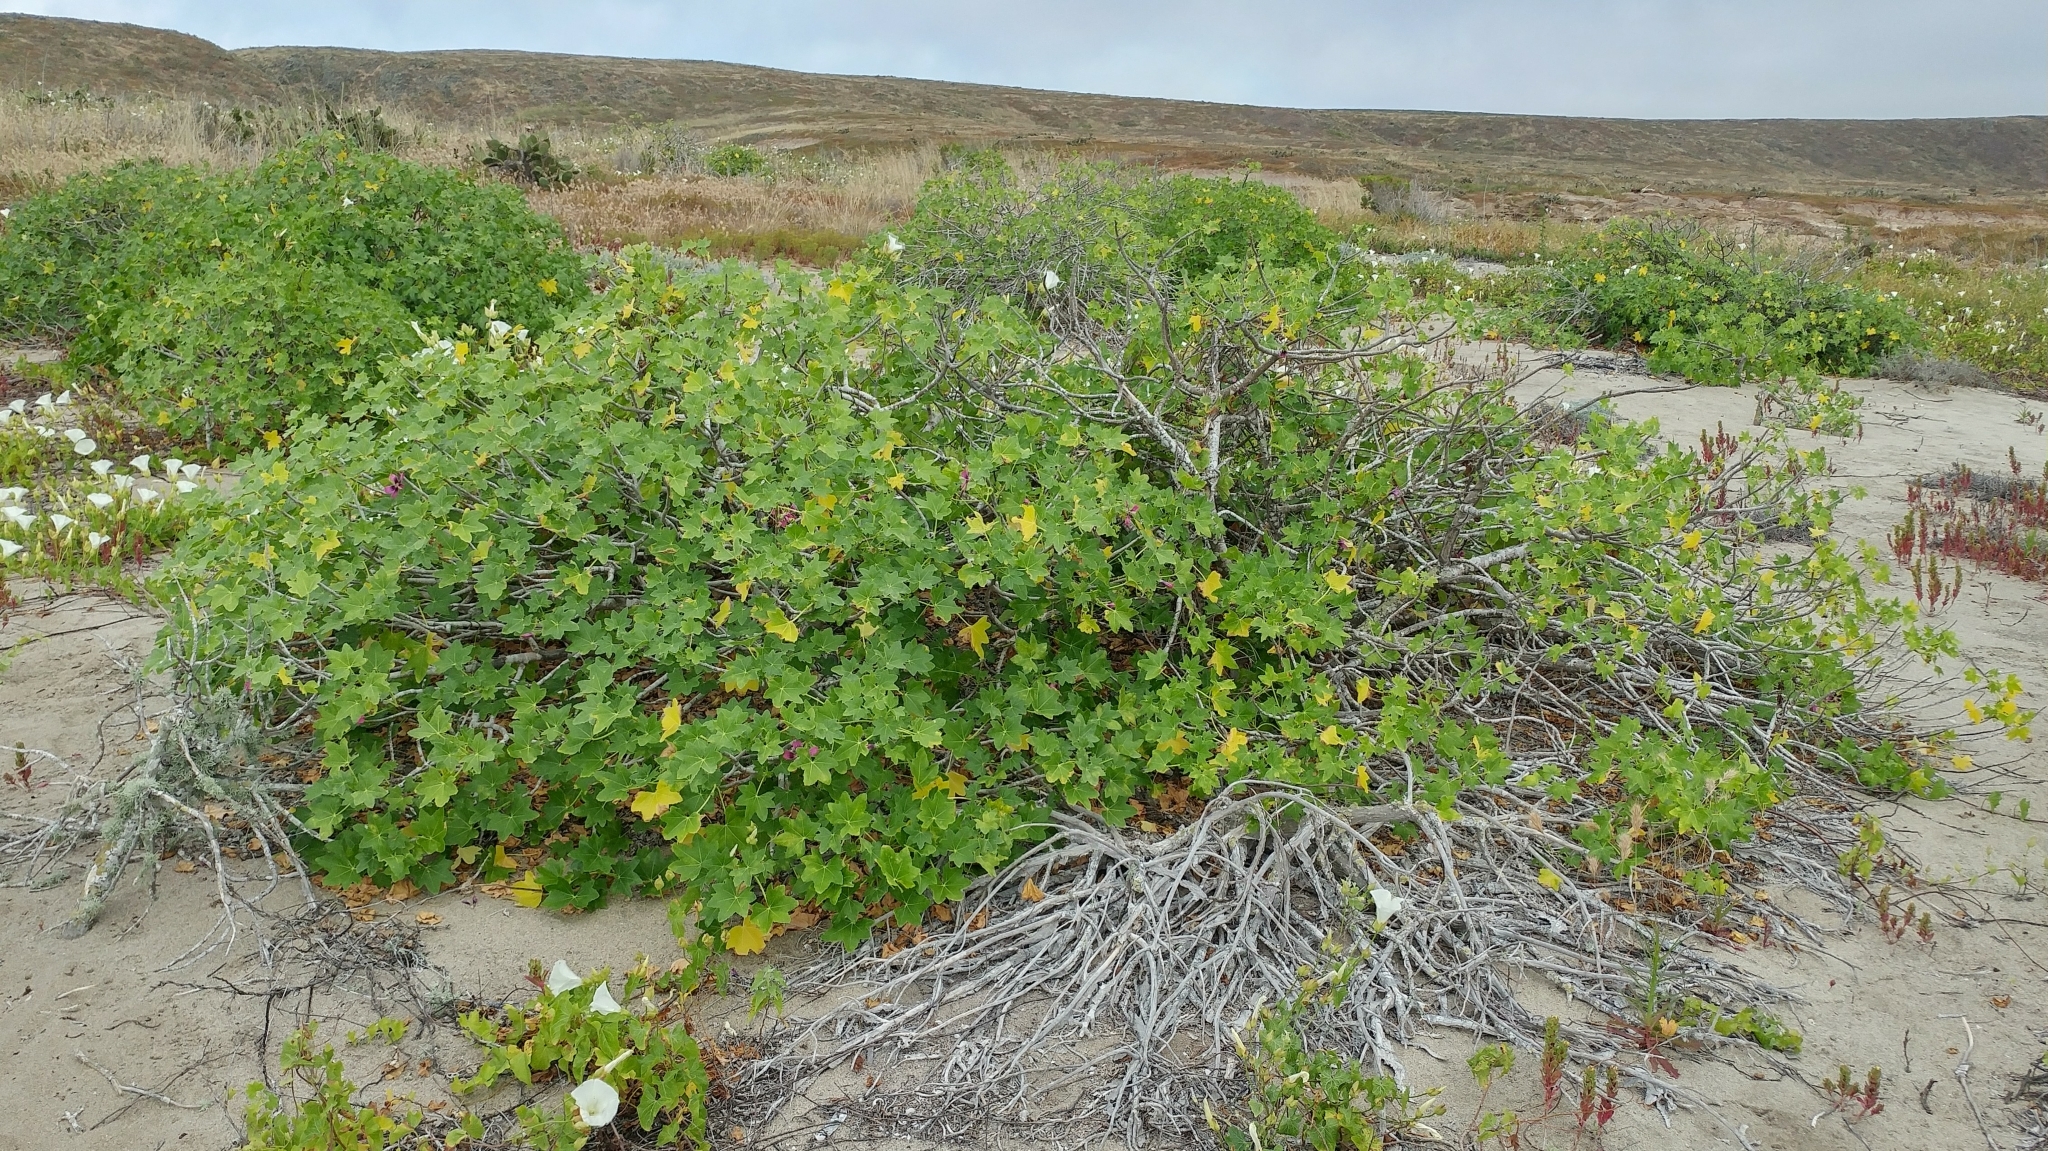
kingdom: Plantae
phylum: Tracheophyta
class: Magnoliopsida
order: Malvales
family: Malvaceae
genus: Malva
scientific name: Malva assurgentiflora
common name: Island mallow
